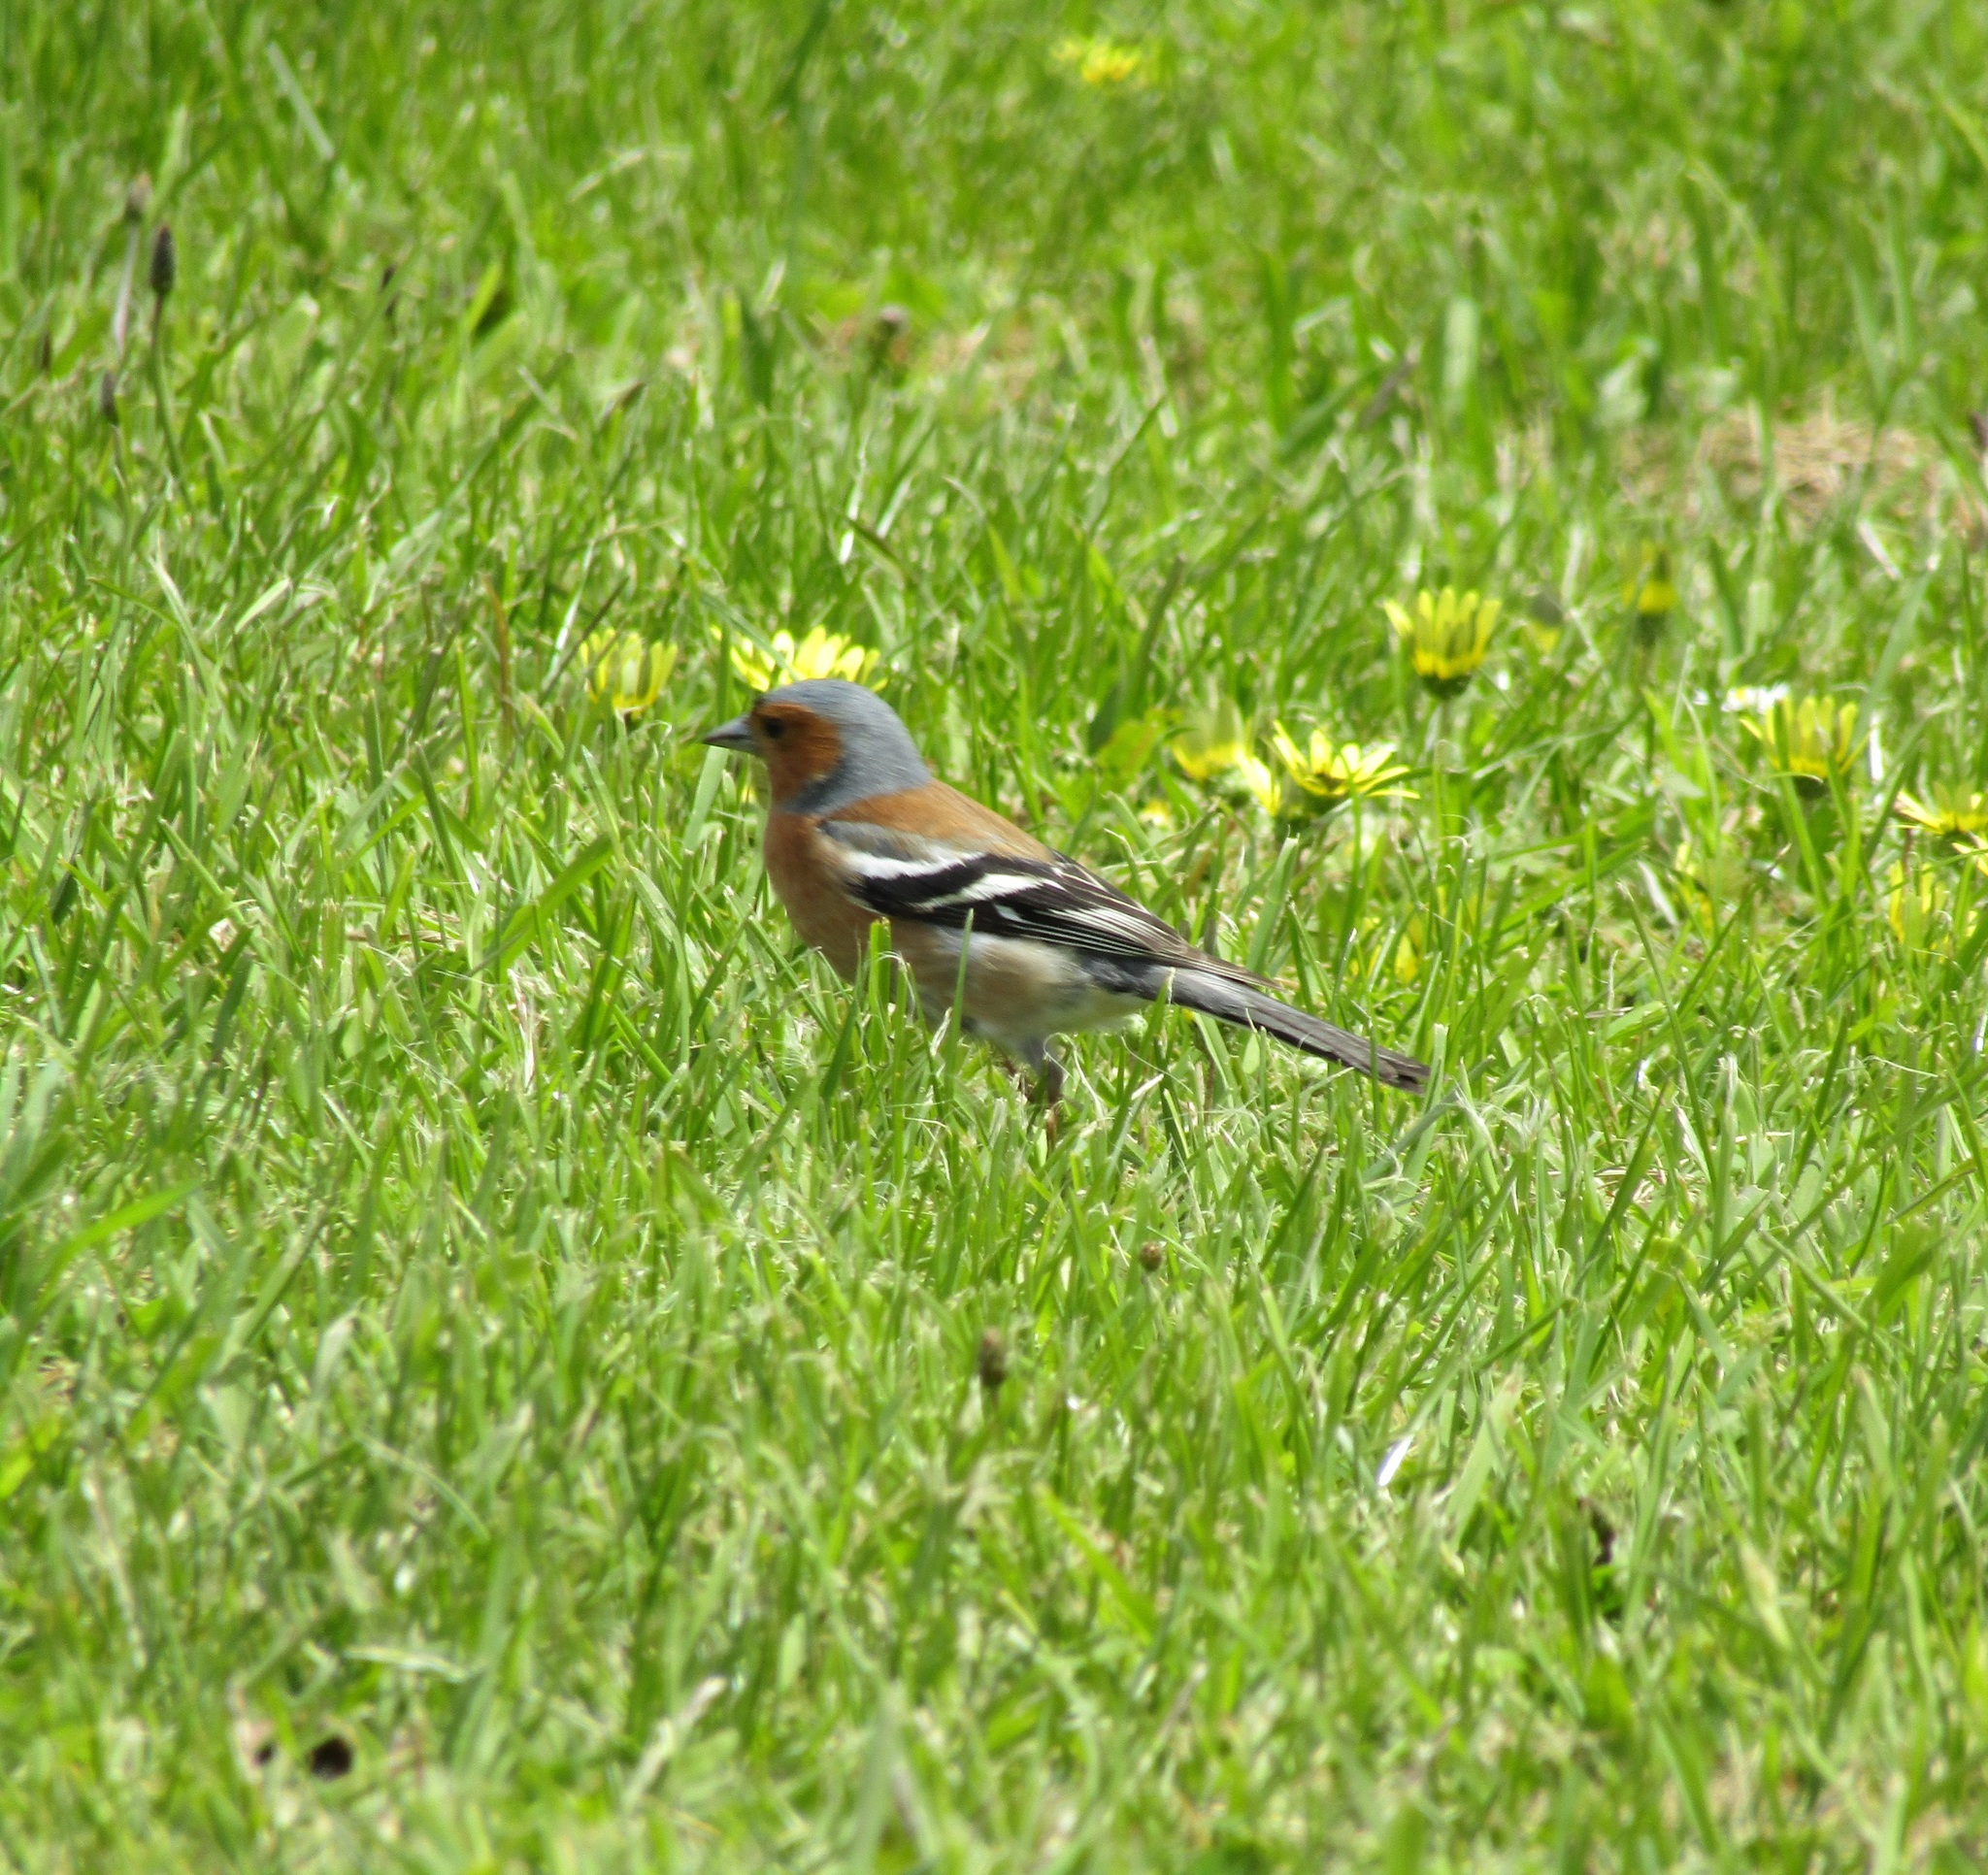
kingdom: Animalia
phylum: Chordata
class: Aves
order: Passeriformes
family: Fringillidae
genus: Fringilla
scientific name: Fringilla coelebs
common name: Common chaffinch
